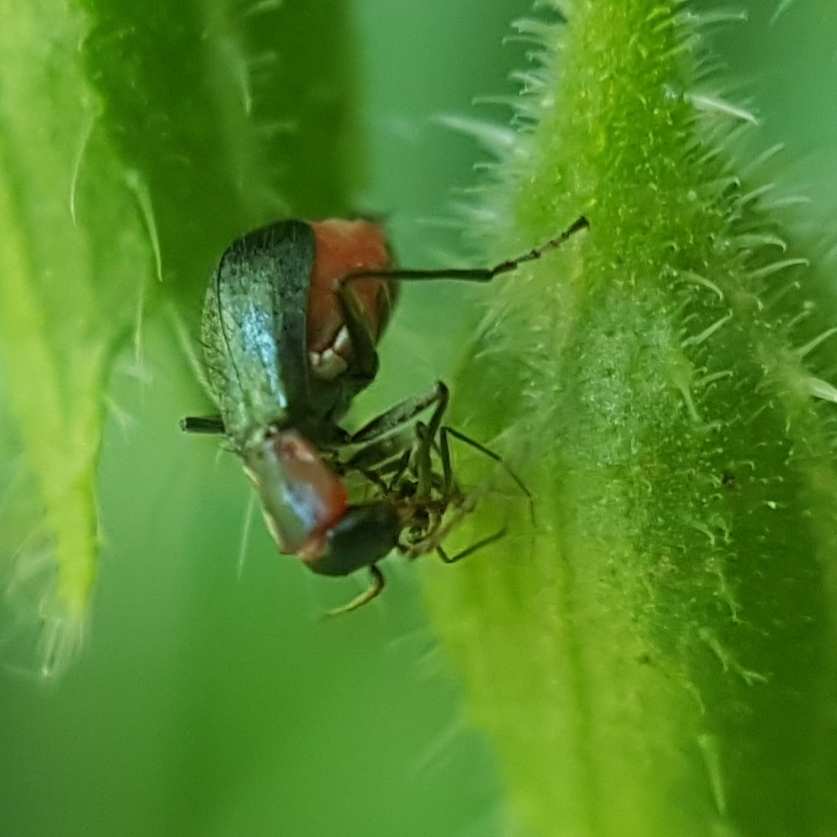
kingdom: Animalia
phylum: Arthropoda
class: Insecta
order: Coleoptera
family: Melyridae
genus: Cyrtosus
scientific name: Cyrtosus cyanipennis
